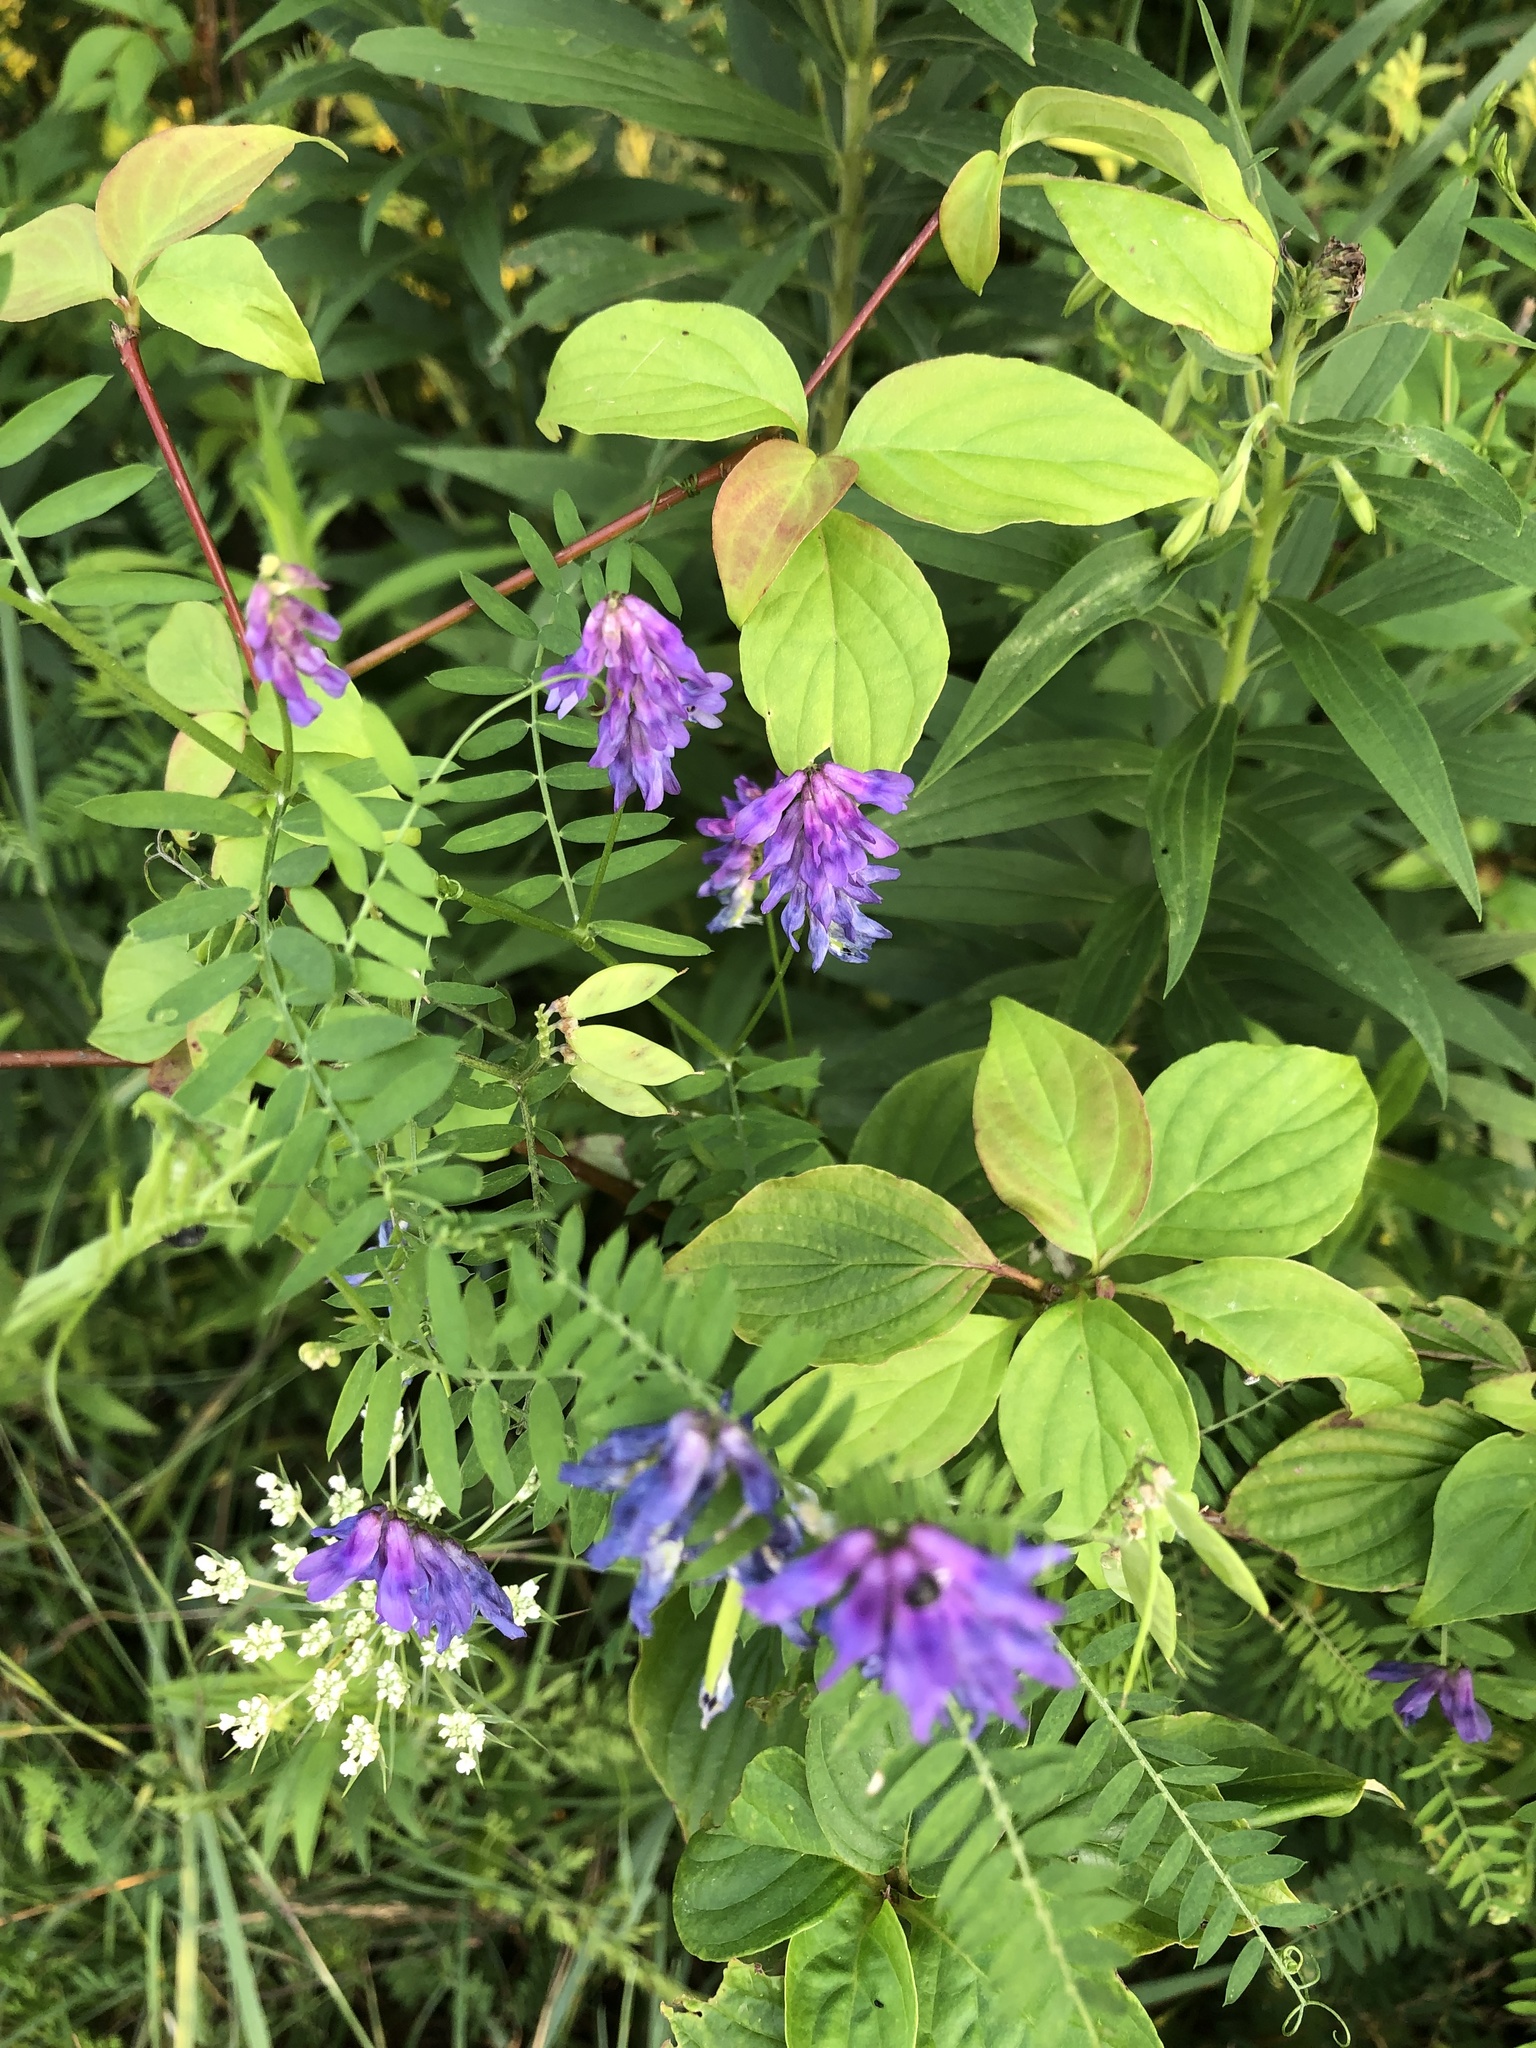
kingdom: Plantae
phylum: Tracheophyta
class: Magnoliopsida
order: Fabales
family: Fabaceae
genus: Vicia
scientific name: Vicia cracca
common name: Bird vetch
